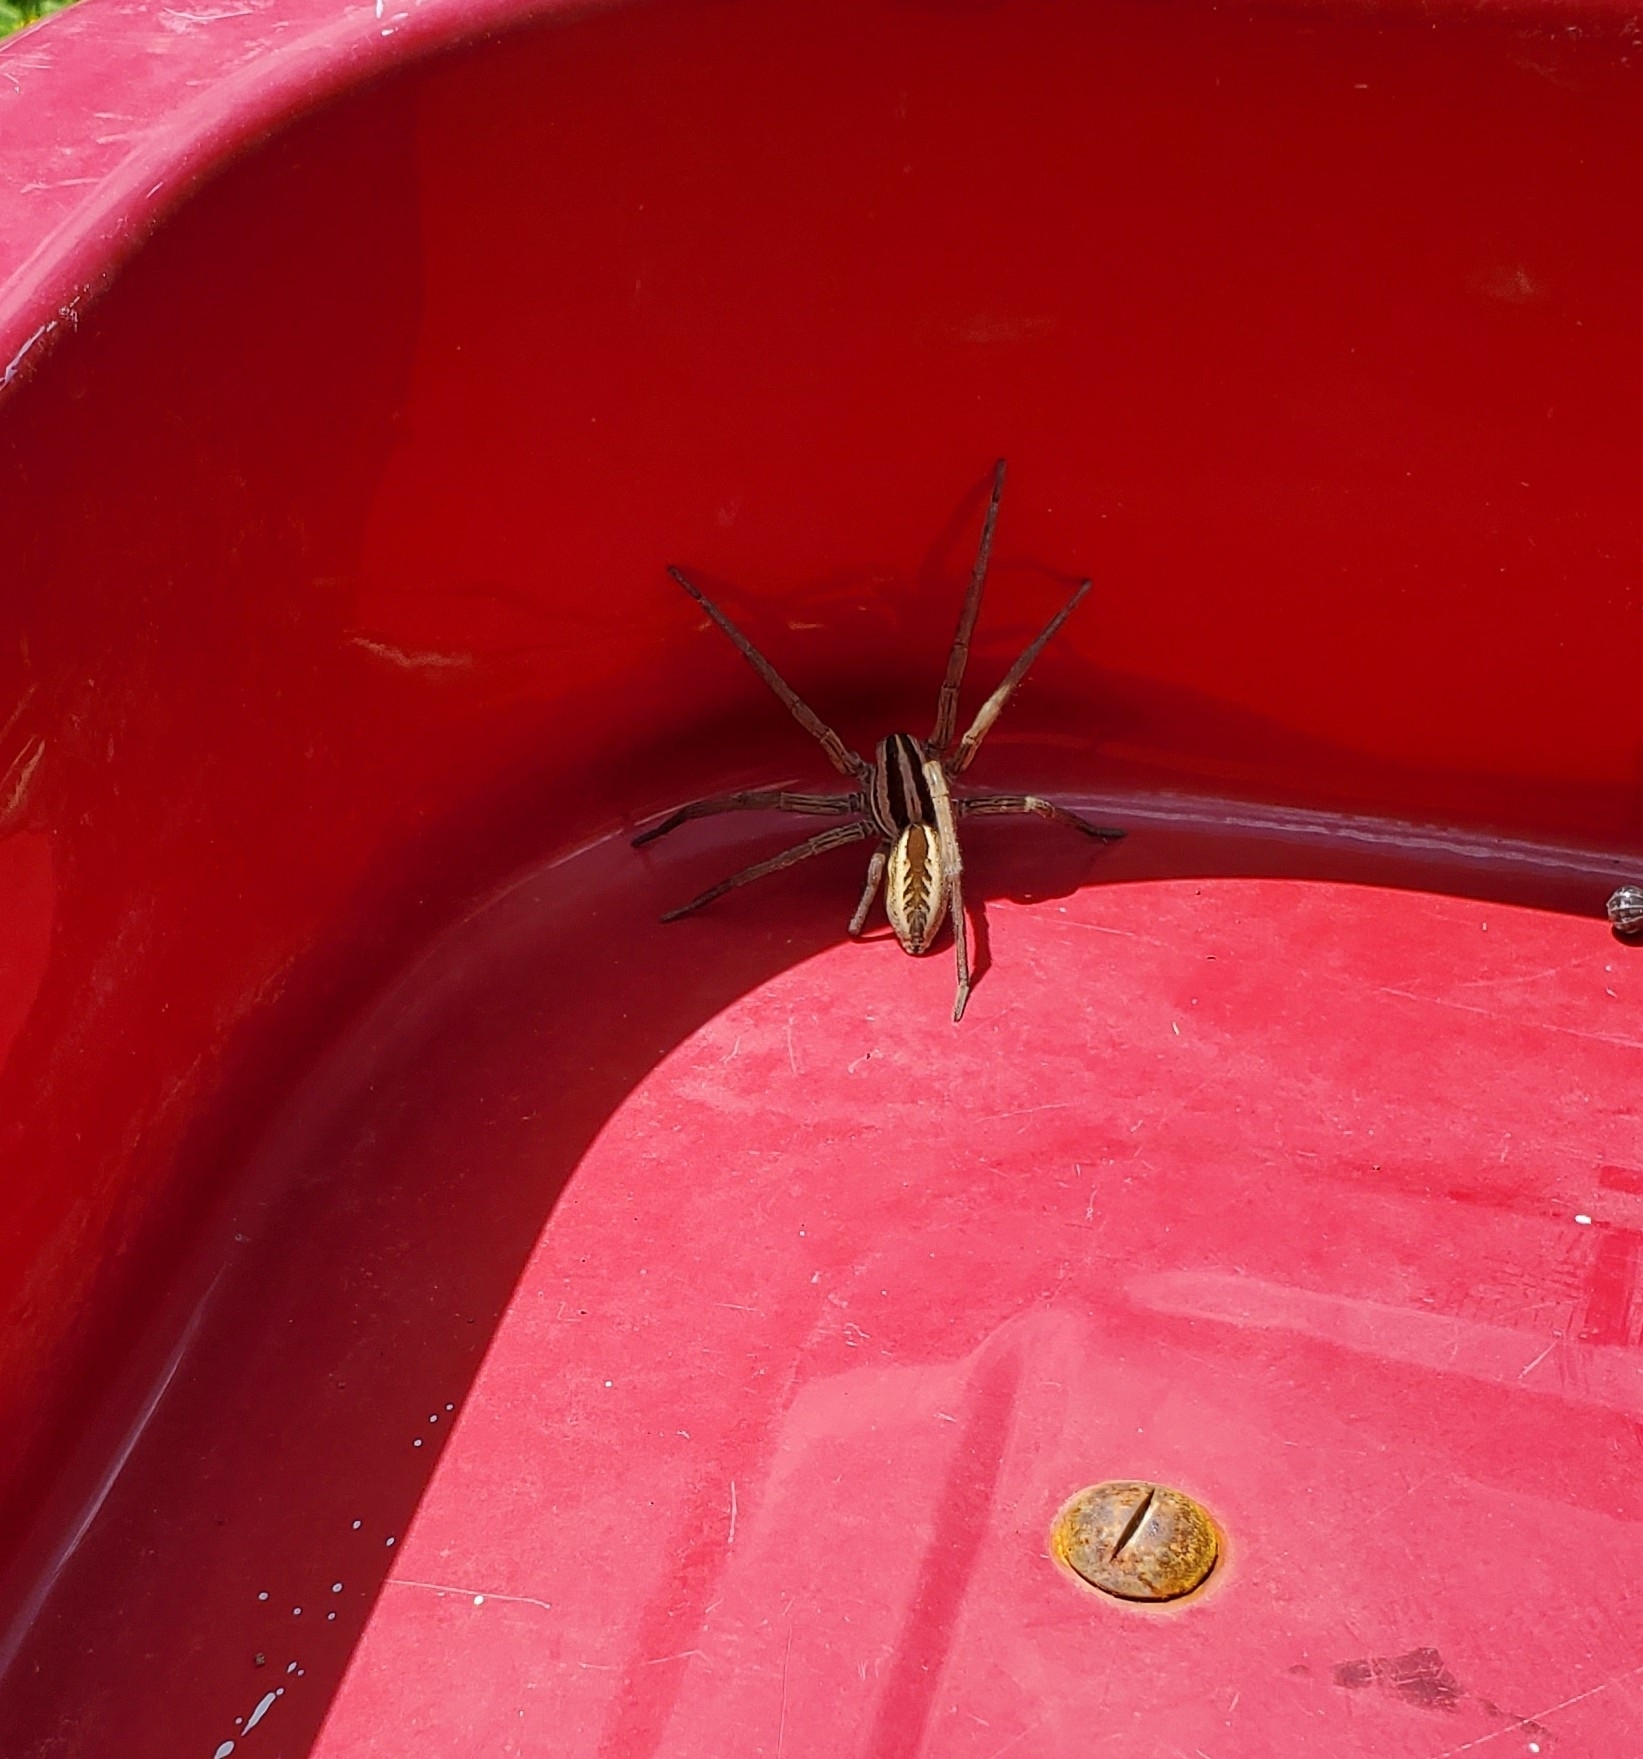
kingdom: Animalia
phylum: Arthropoda
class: Arachnida
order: Araneae
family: Lycosidae
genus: Rabidosa
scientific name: Rabidosa rabida
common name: Rabid wolf spider
